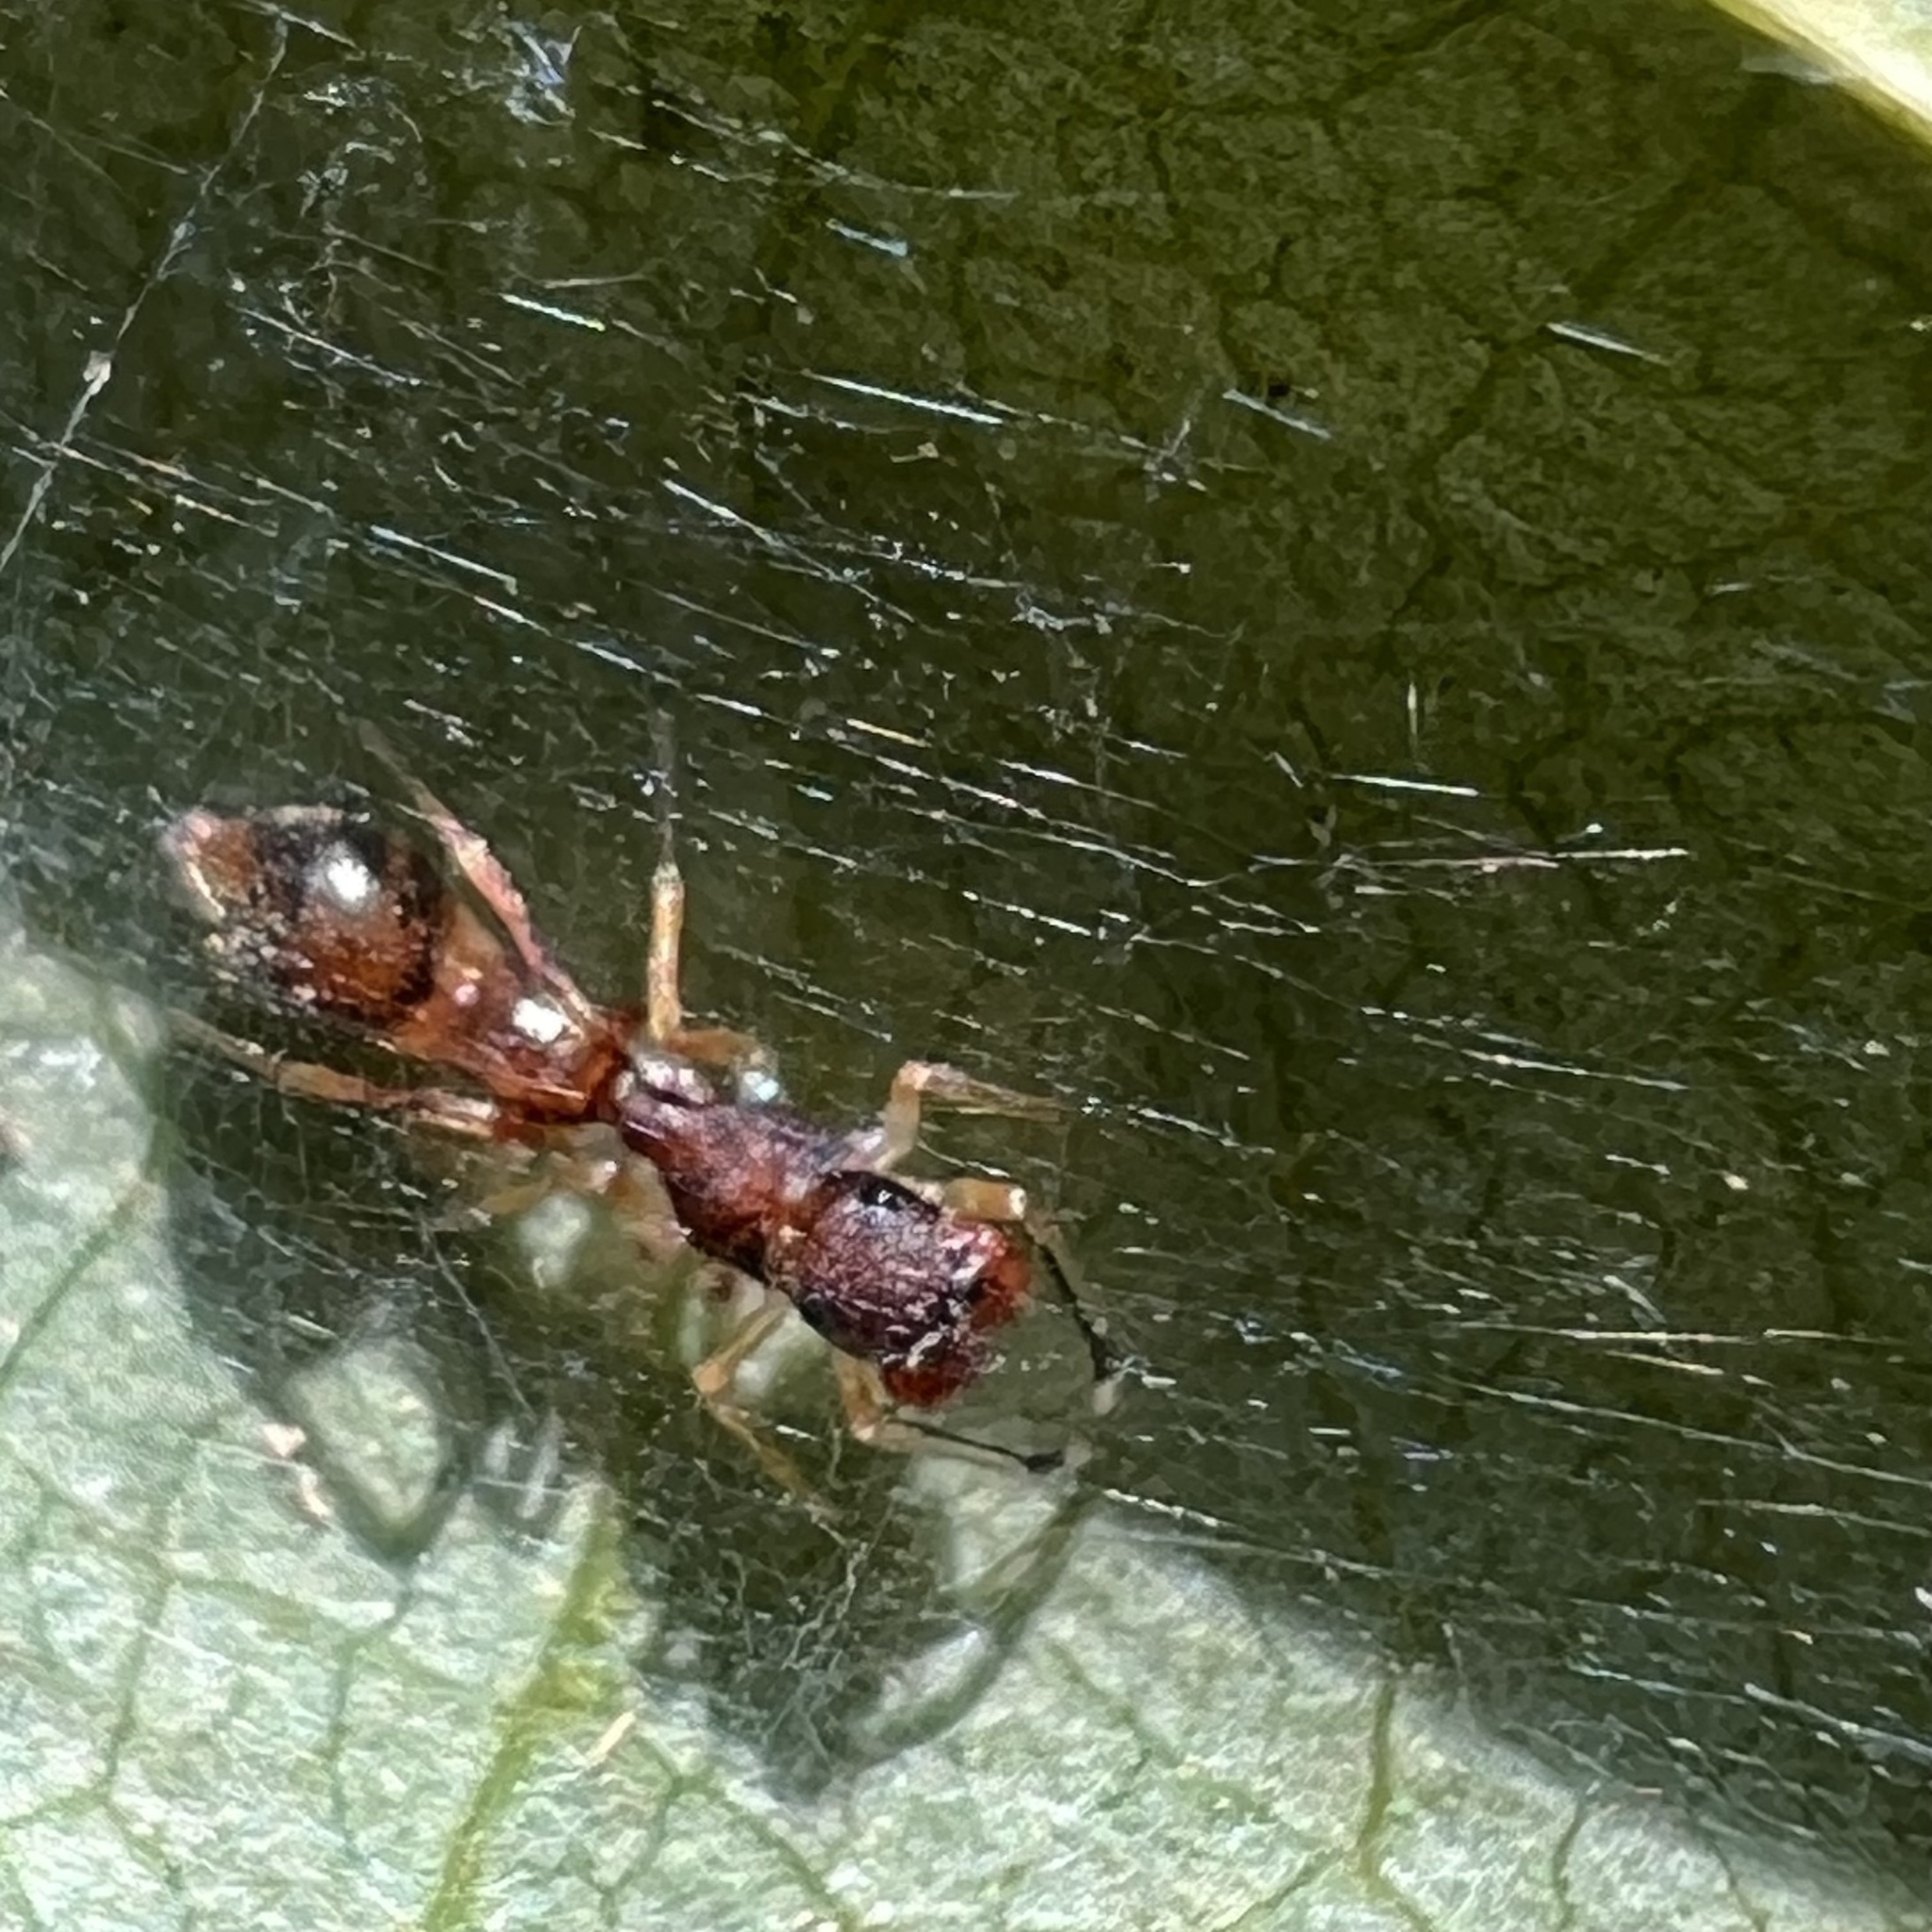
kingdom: Animalia
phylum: Arthropoda
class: Arachnida
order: Araneae
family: Salticidae
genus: Synemosyna
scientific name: Synemosyna formica
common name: Slender ant-mimic jumping spider
